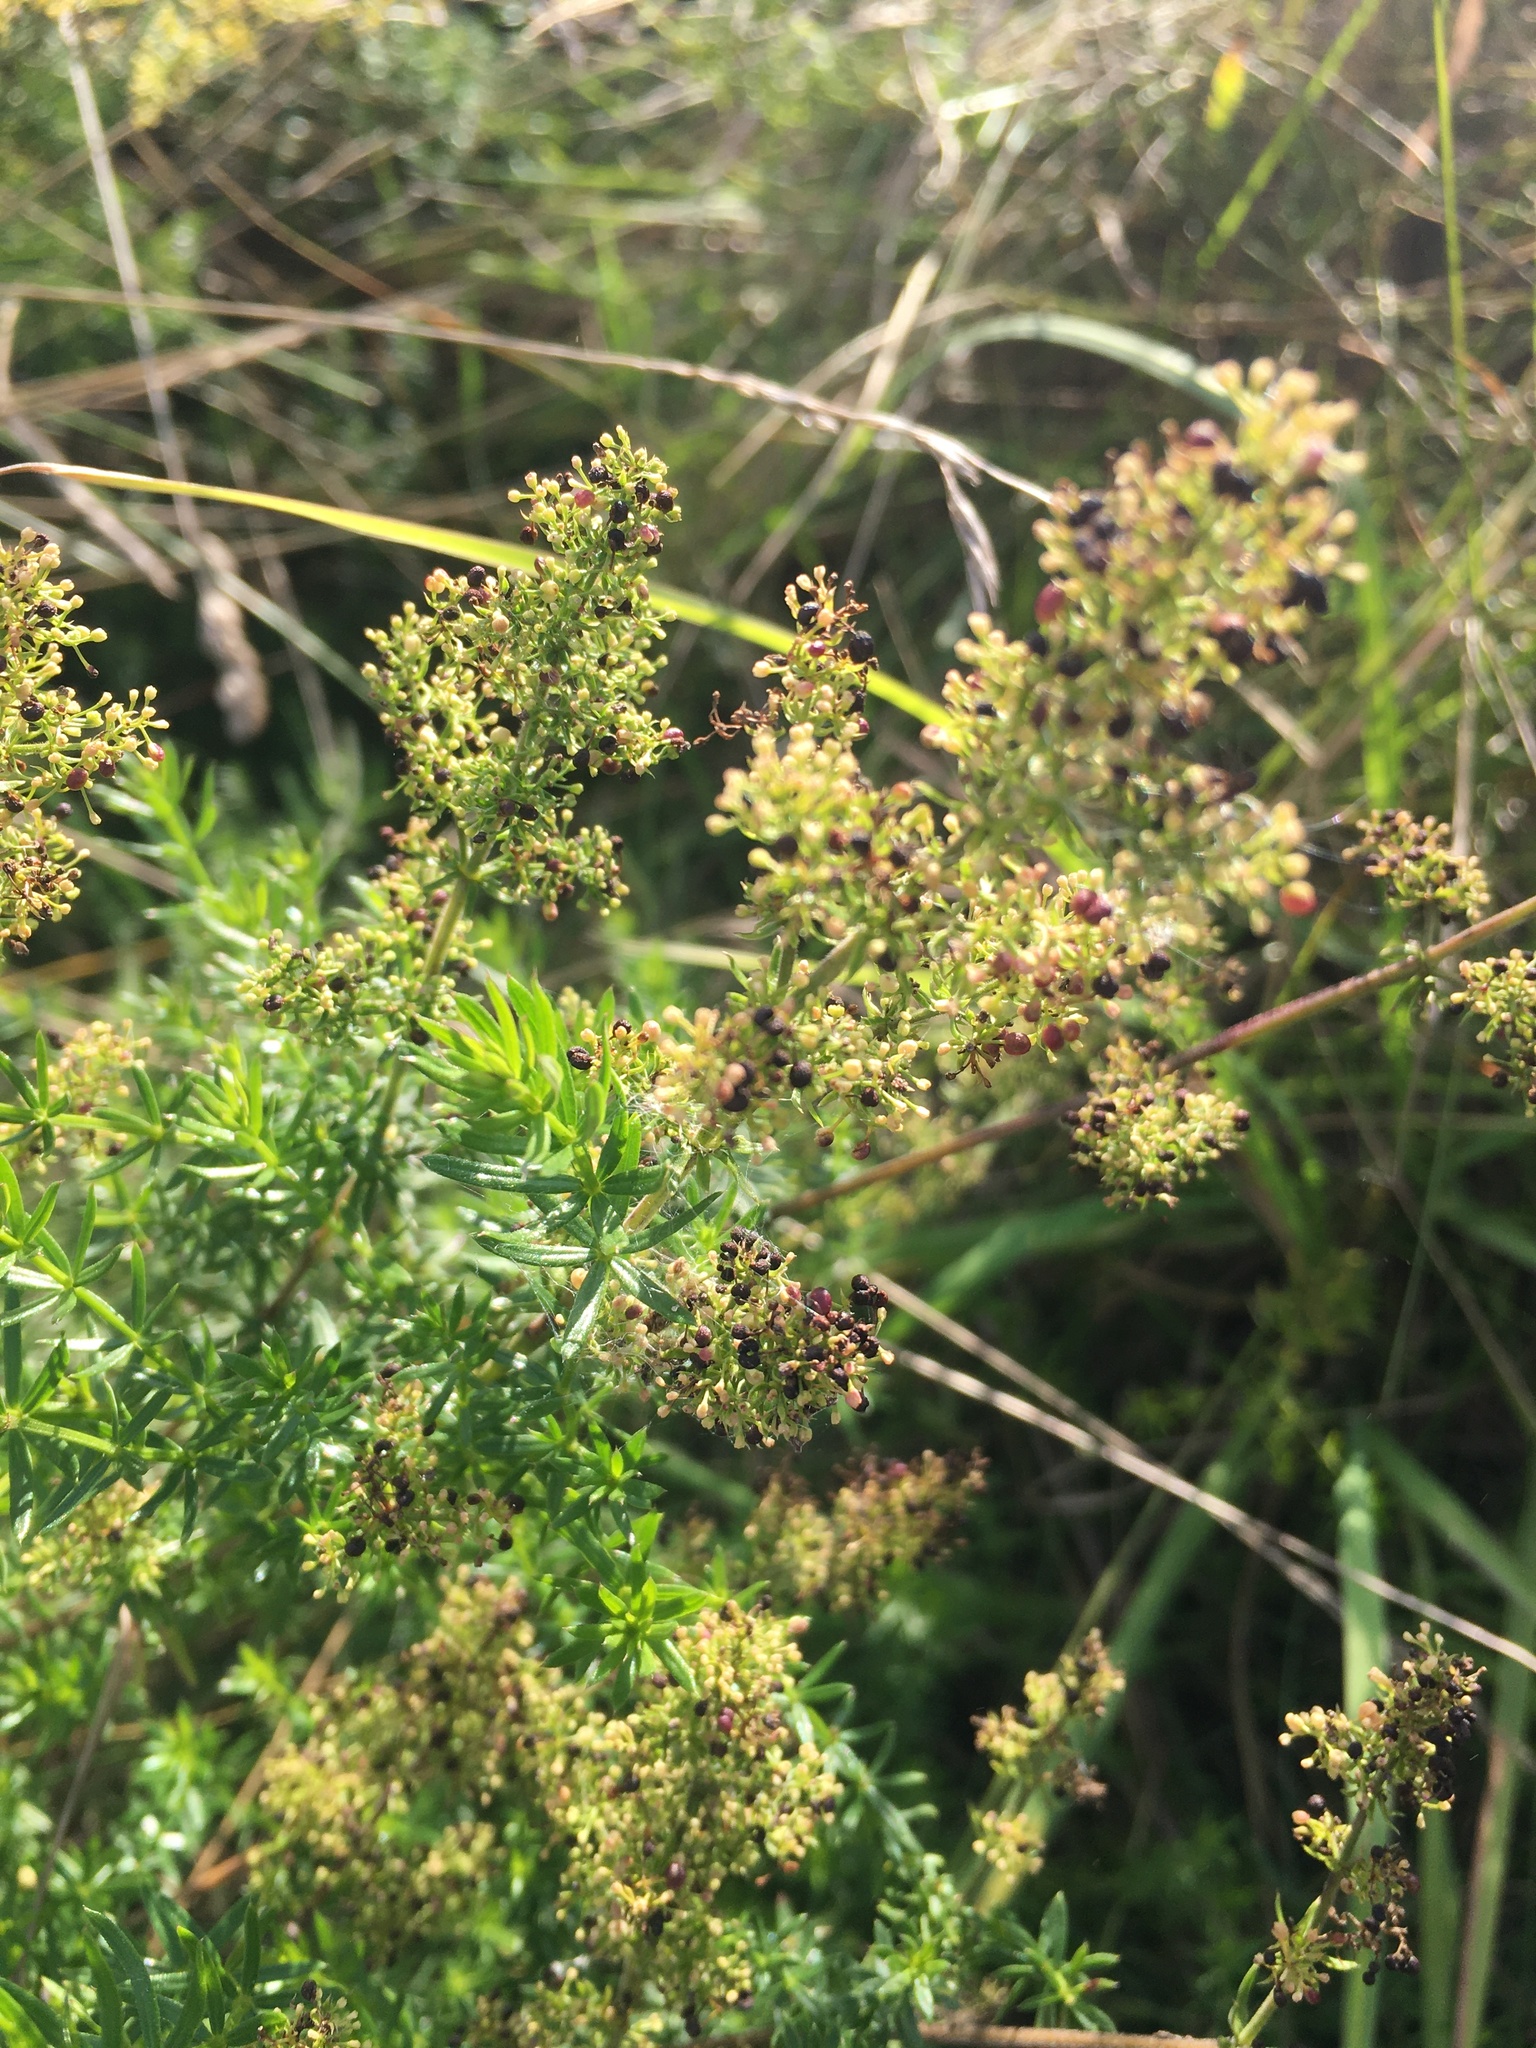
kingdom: Plantae
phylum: Tracheophyta
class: Magnoliopsida
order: Gentianales
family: Rubiaceae
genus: Galium
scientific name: Galium mollugo
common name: Hedge bedstraw
